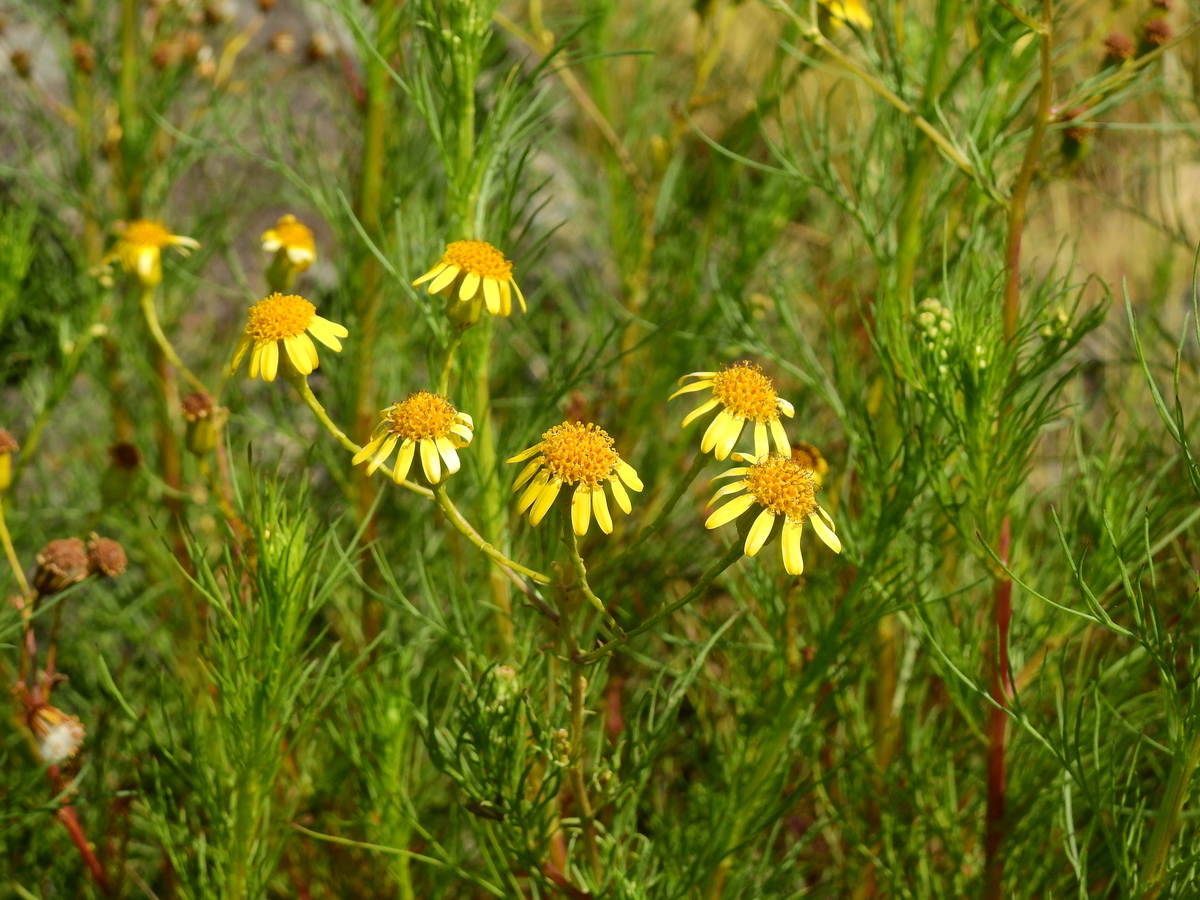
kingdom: Plantae
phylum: Tracheophyta
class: Magnoliopsida
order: Asterales
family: Asteraceae
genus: Senecio
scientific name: Senecio pampeanus
